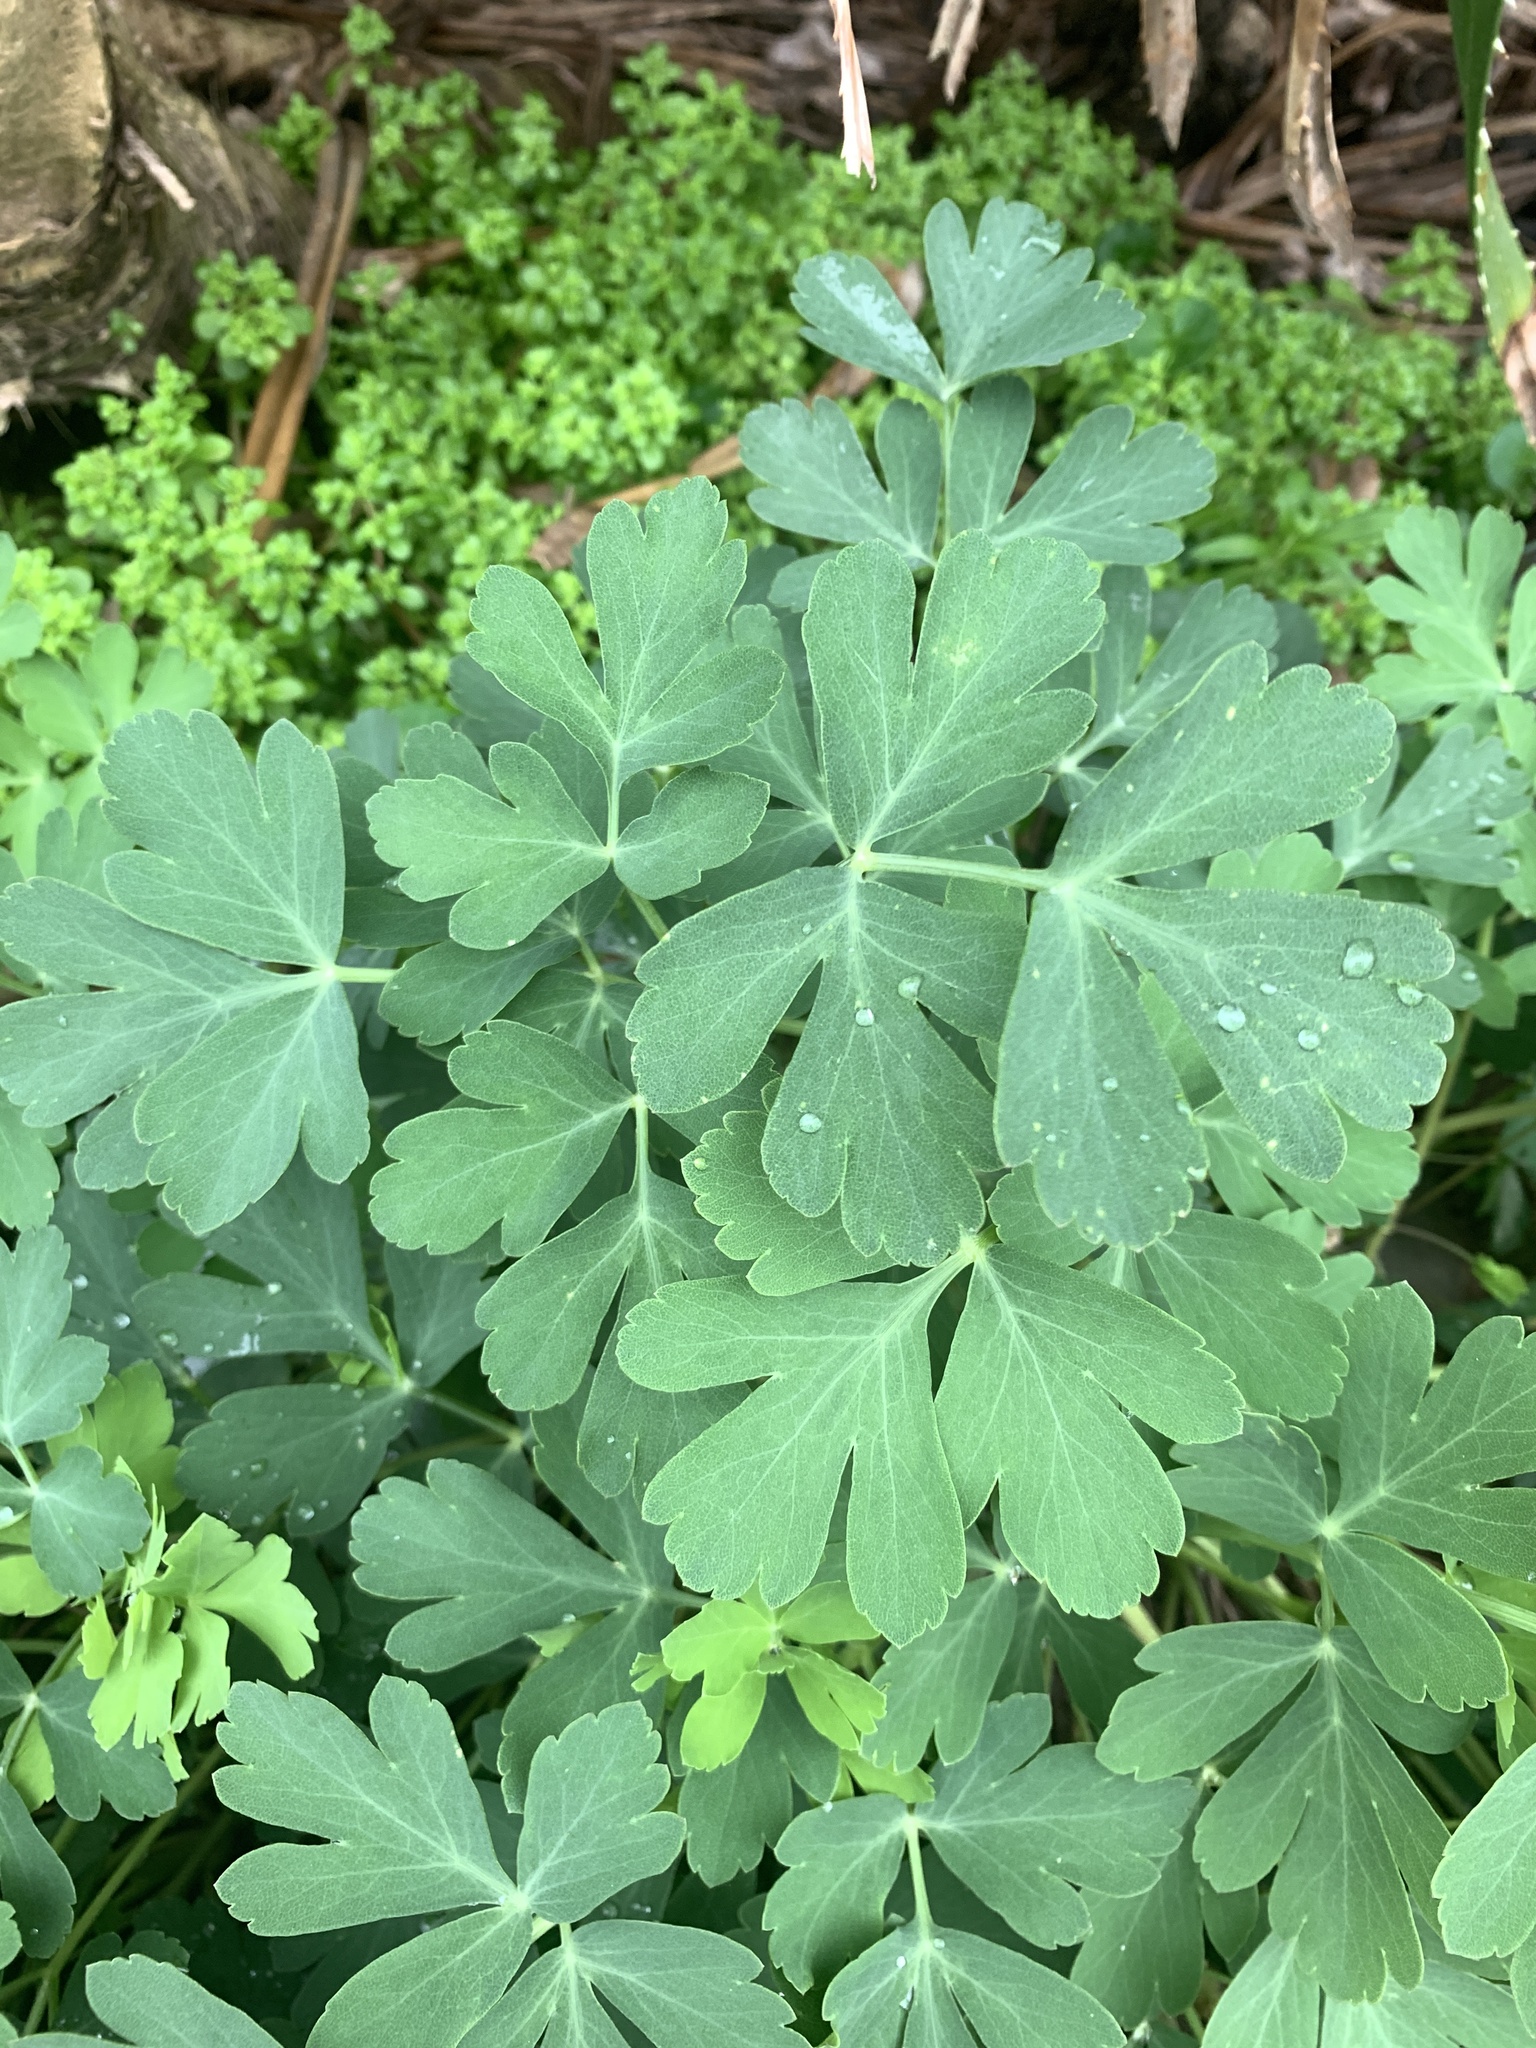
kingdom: Plantae
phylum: Tracheophyta
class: Magnoliopsida
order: Apiales
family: Apiaceae
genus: Peucedanum
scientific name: Peucedanum japonicum
